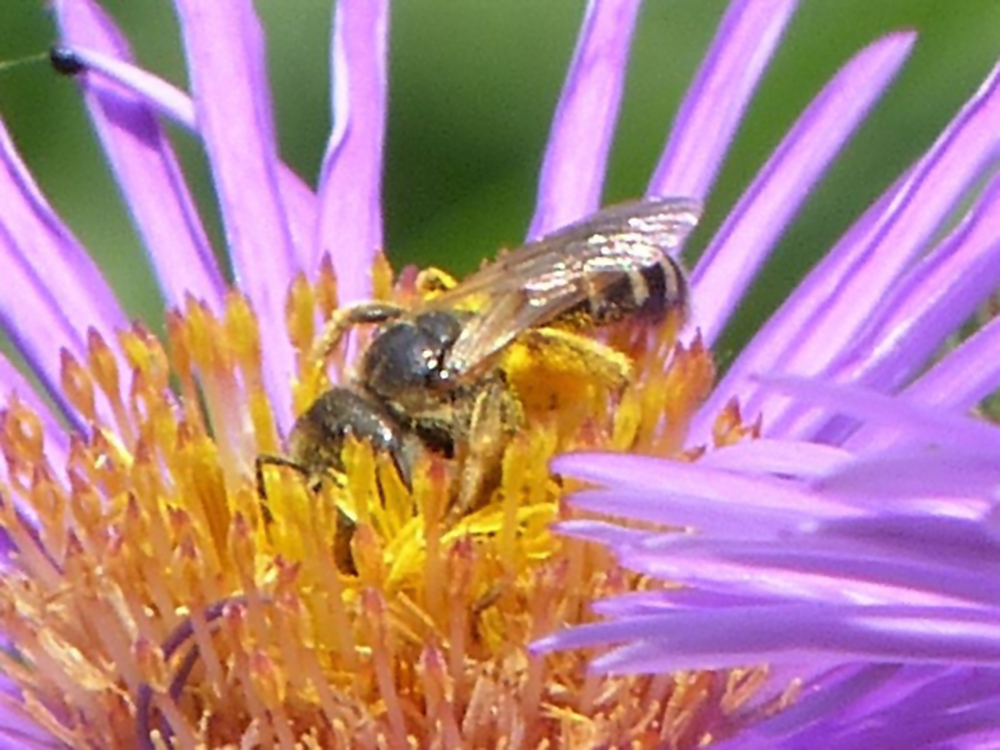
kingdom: Animalia
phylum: Arthropoda
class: Insecta
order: Hymenoptera
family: Halictidae
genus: Halictus
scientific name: Halictus ligatus
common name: Ligated furrow bee
